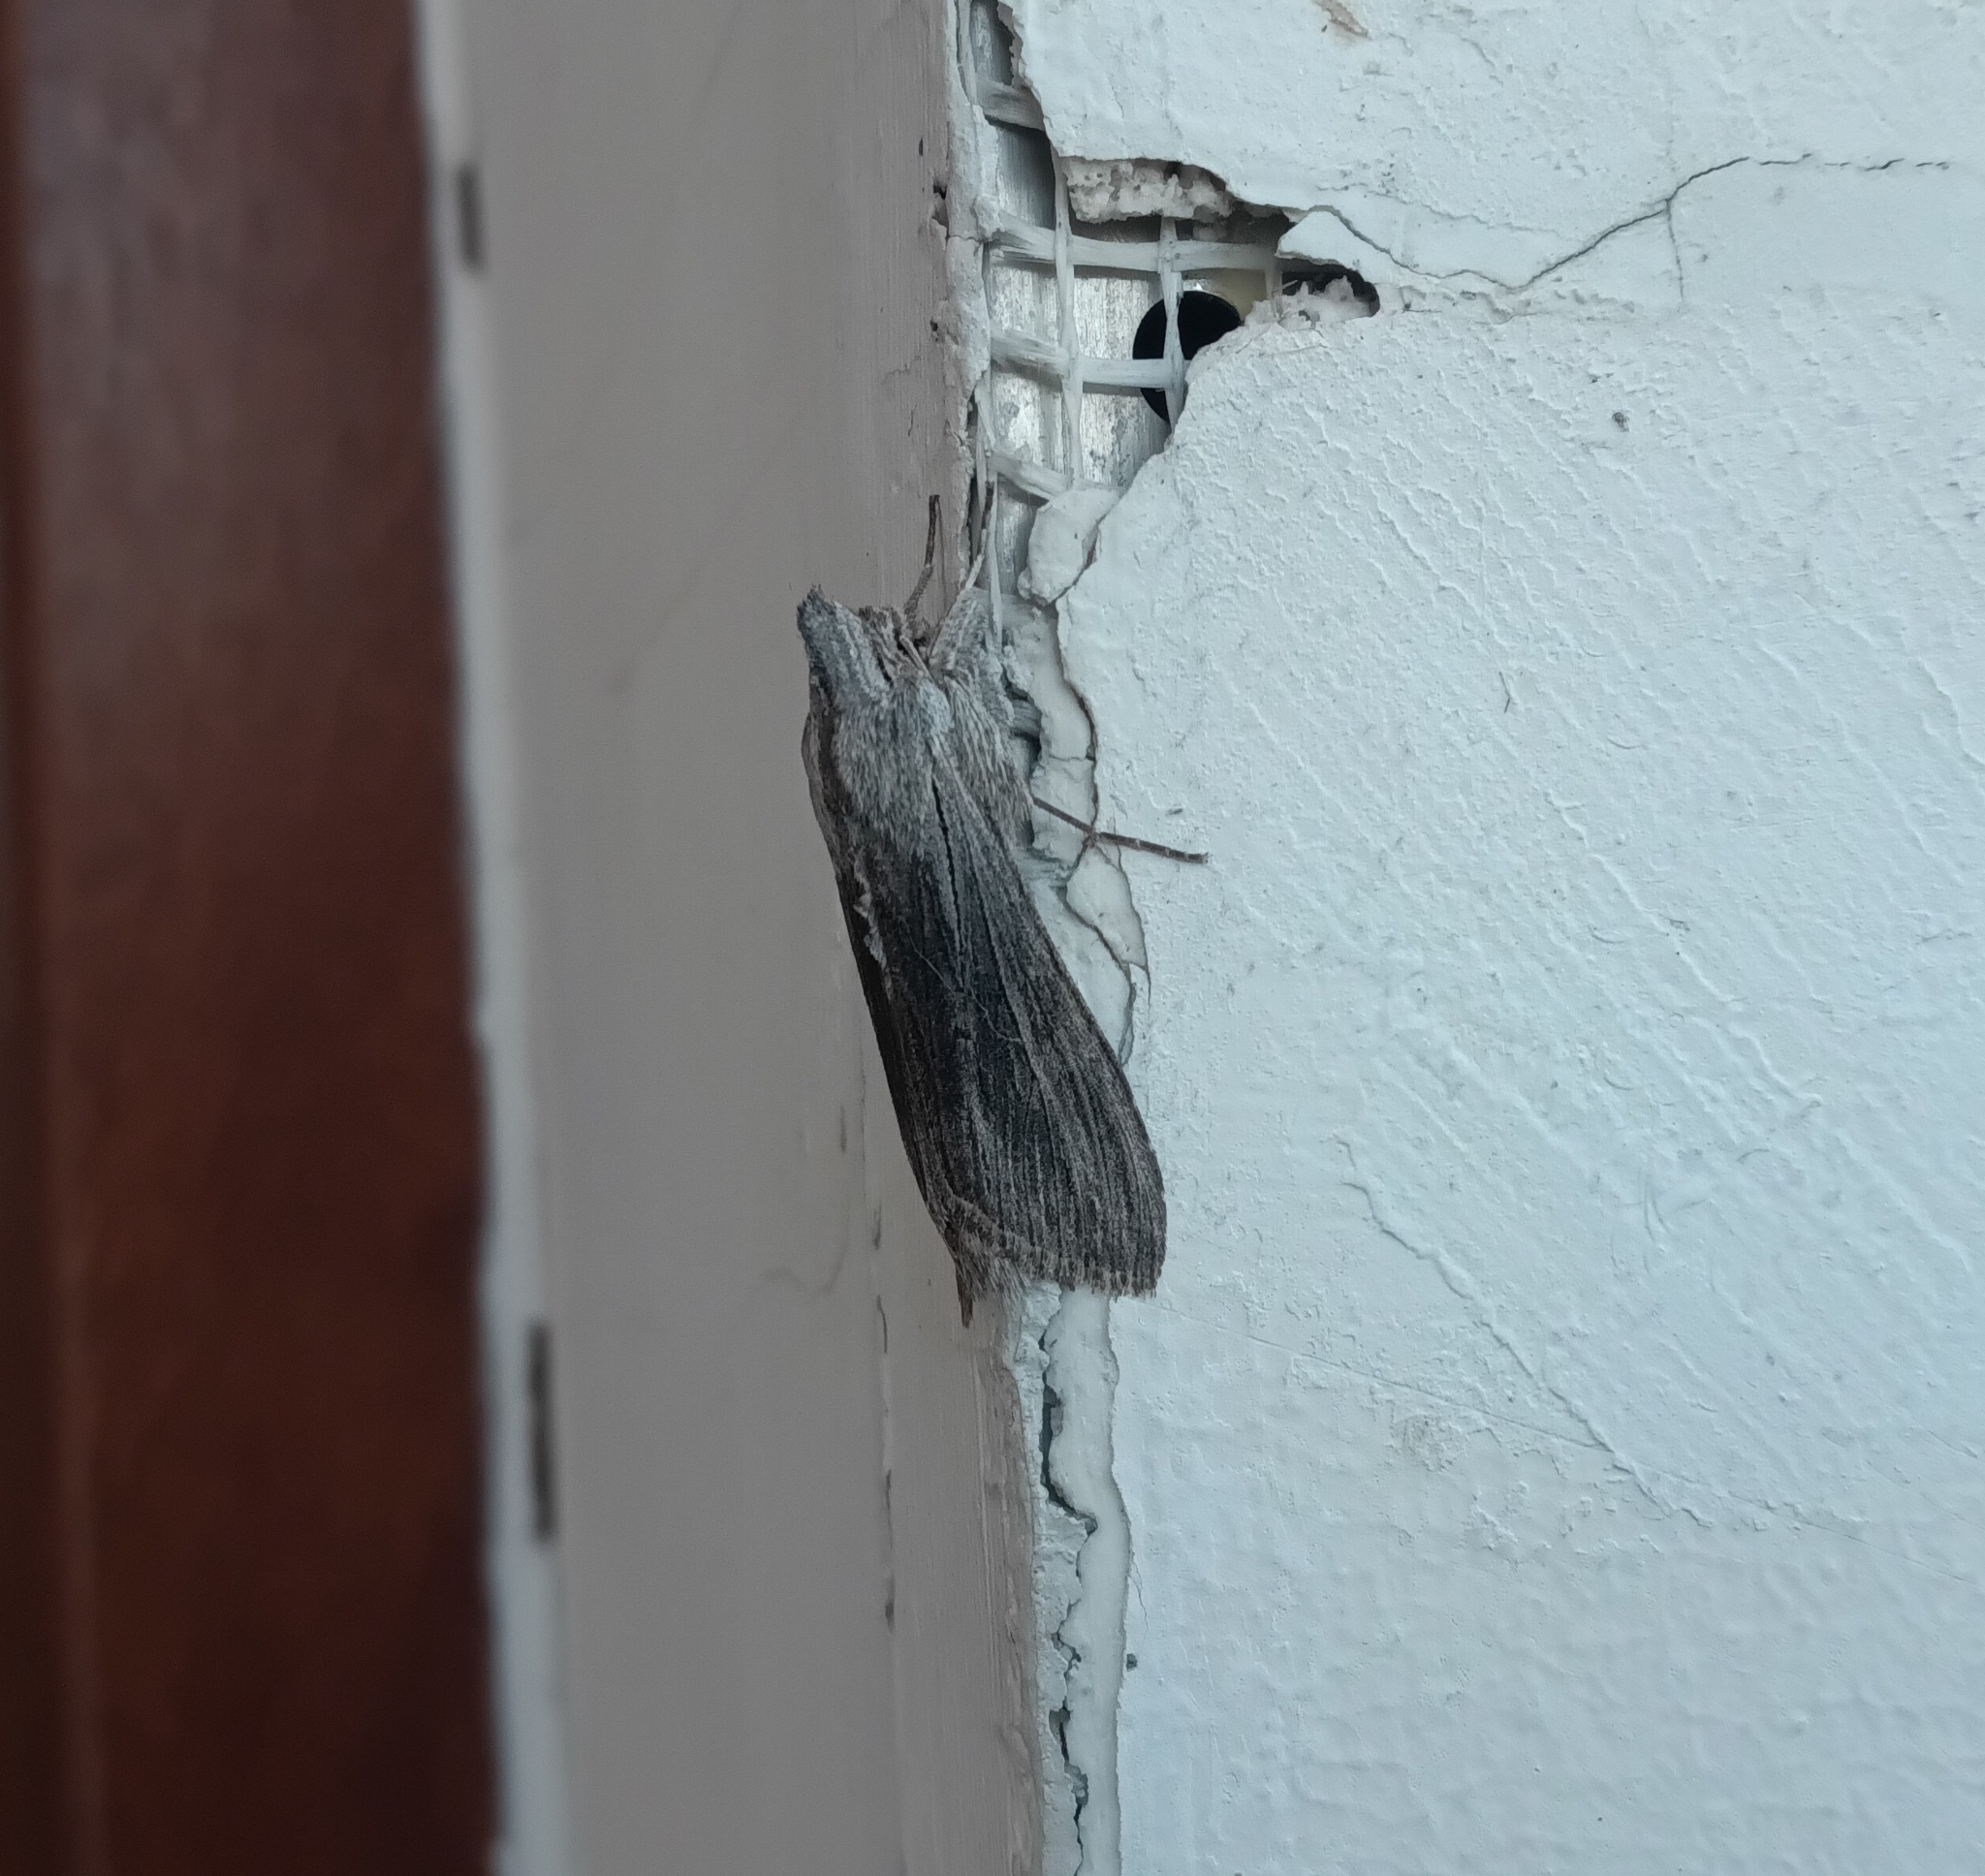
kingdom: Animalia
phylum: Arthropoda
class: Insecta
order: Lepidoptera
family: Noctuidae
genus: Cucullia
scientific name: Cucullia chamomillae
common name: Chamomile shark
